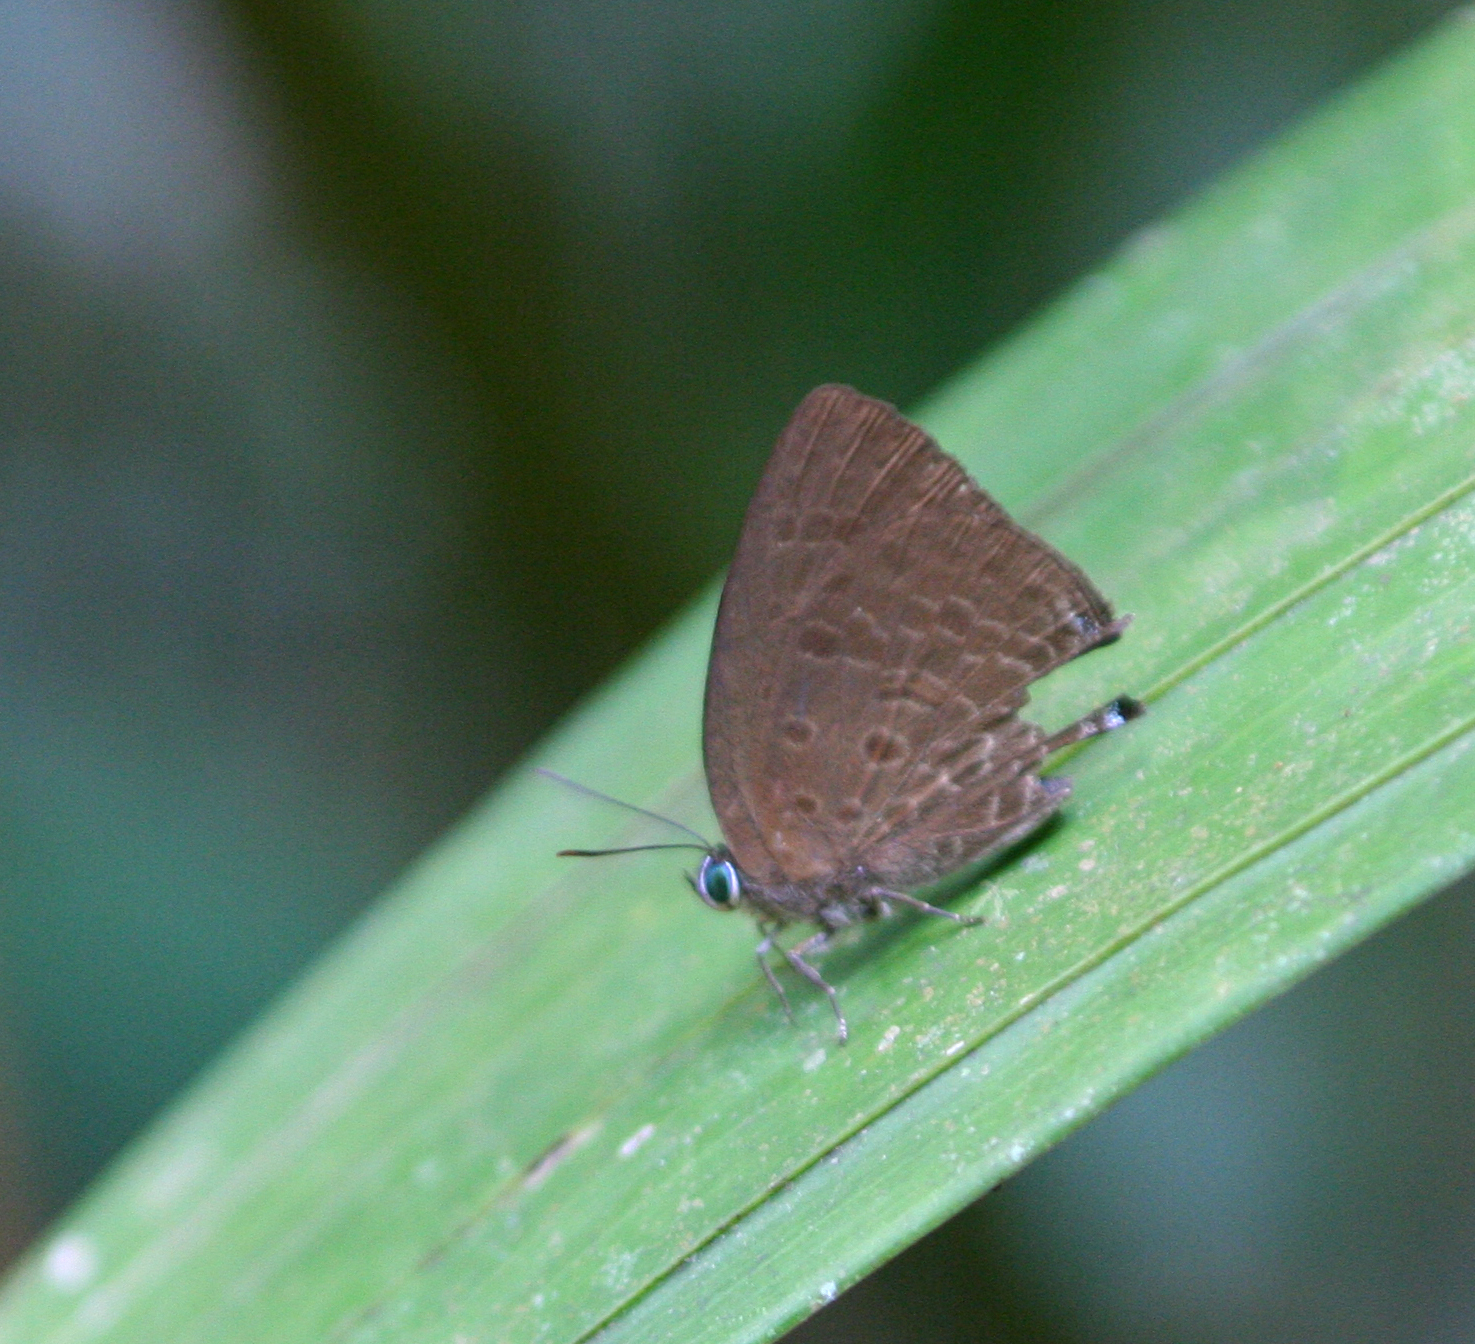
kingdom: Animalia
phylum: Arthropoda
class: Insecta
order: Lepidoptera
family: Lycaenidae
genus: Arhopala
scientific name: Arhopala agrata
